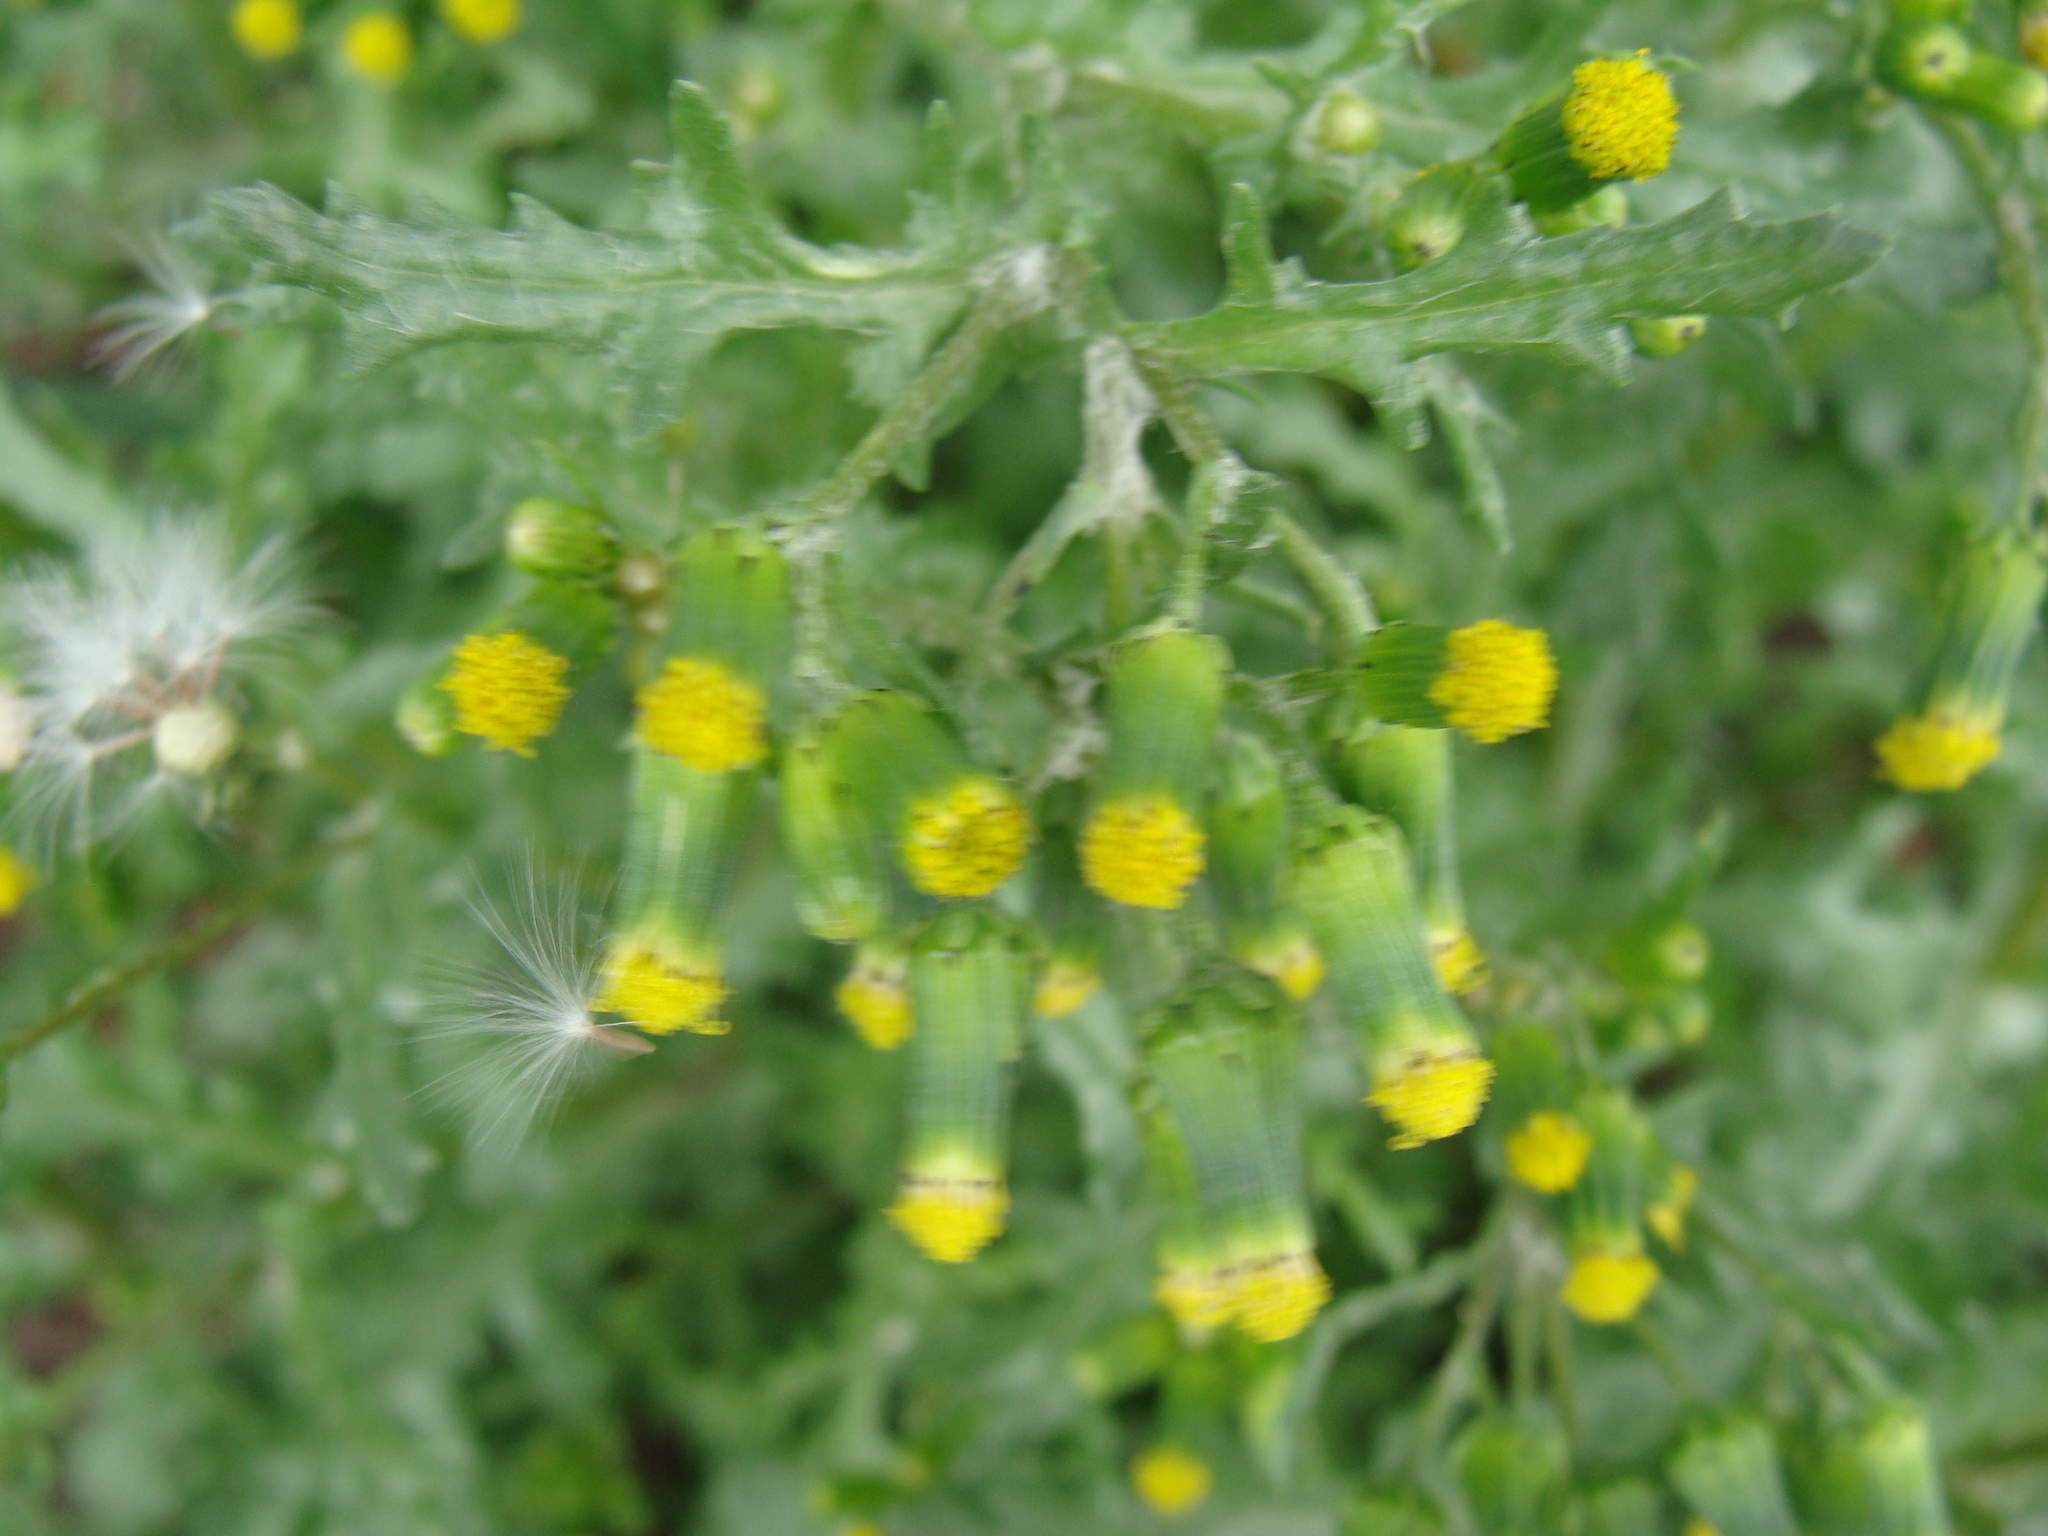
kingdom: Plantae
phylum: Tracheophyta
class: Magnoliopsida
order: Asterales
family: Asteraceae
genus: Senecio
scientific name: Senecio vulgaris
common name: Old-man-in-the-spring
